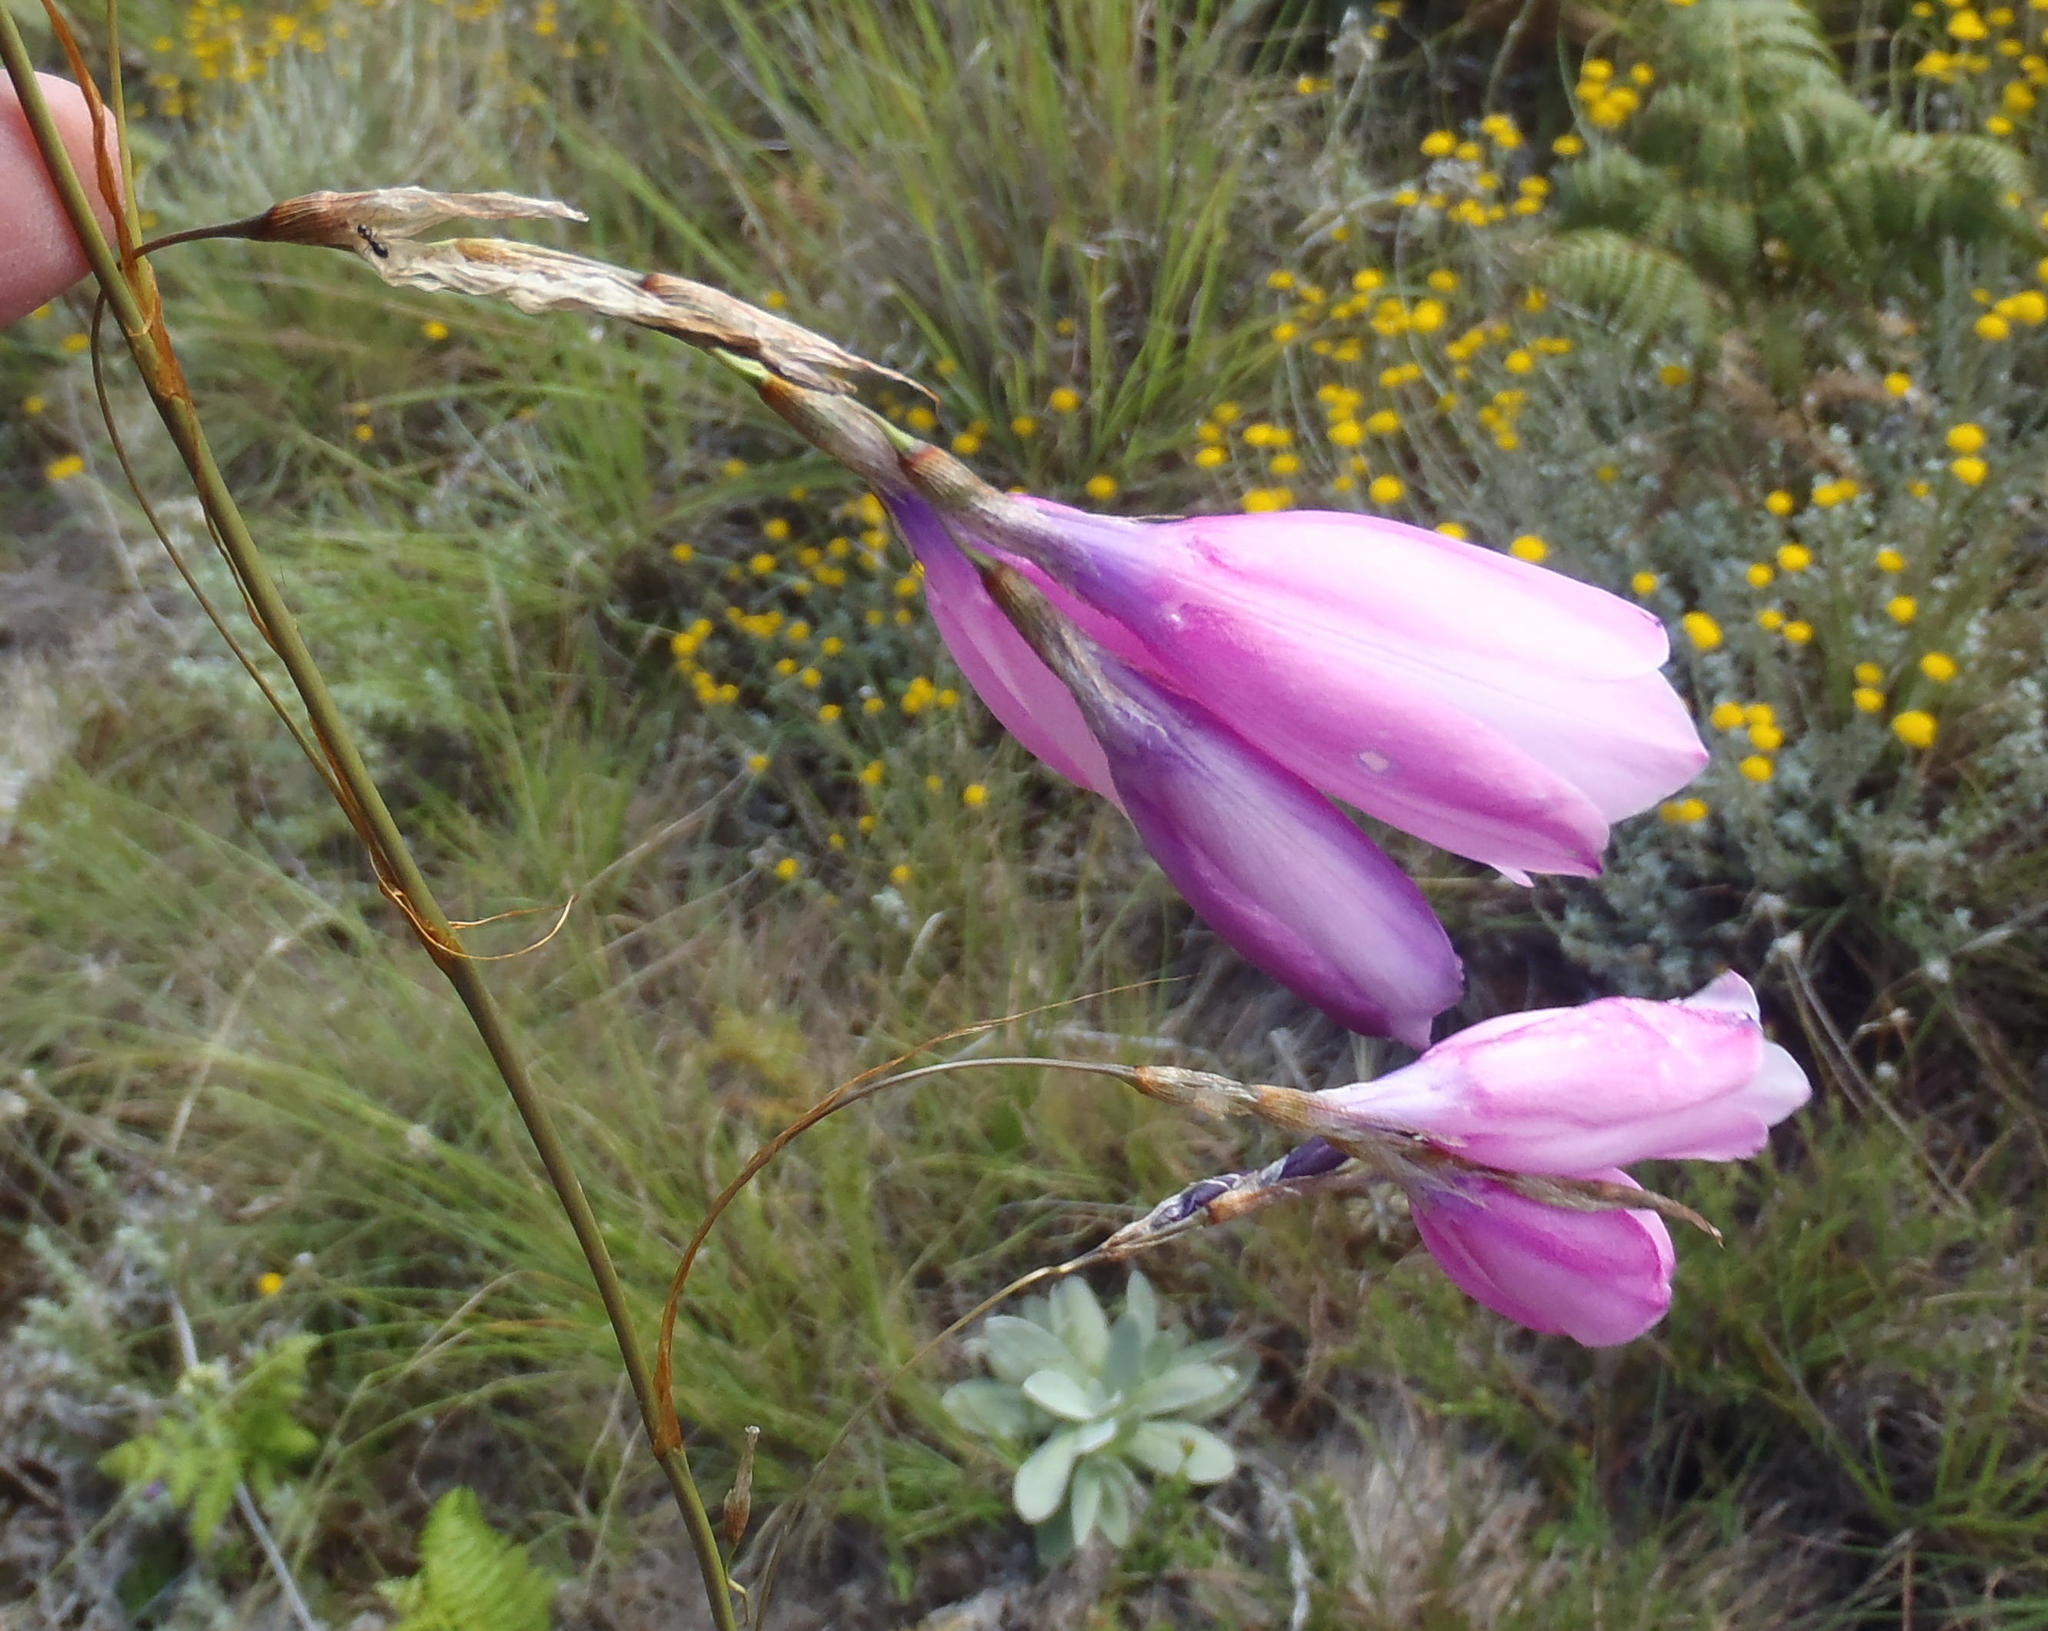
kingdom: Plantae
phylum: Tracheophyta
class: Liliopsida
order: Asparagales
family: Iridaceae
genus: Dierama
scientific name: Dierama pulcherrimum
